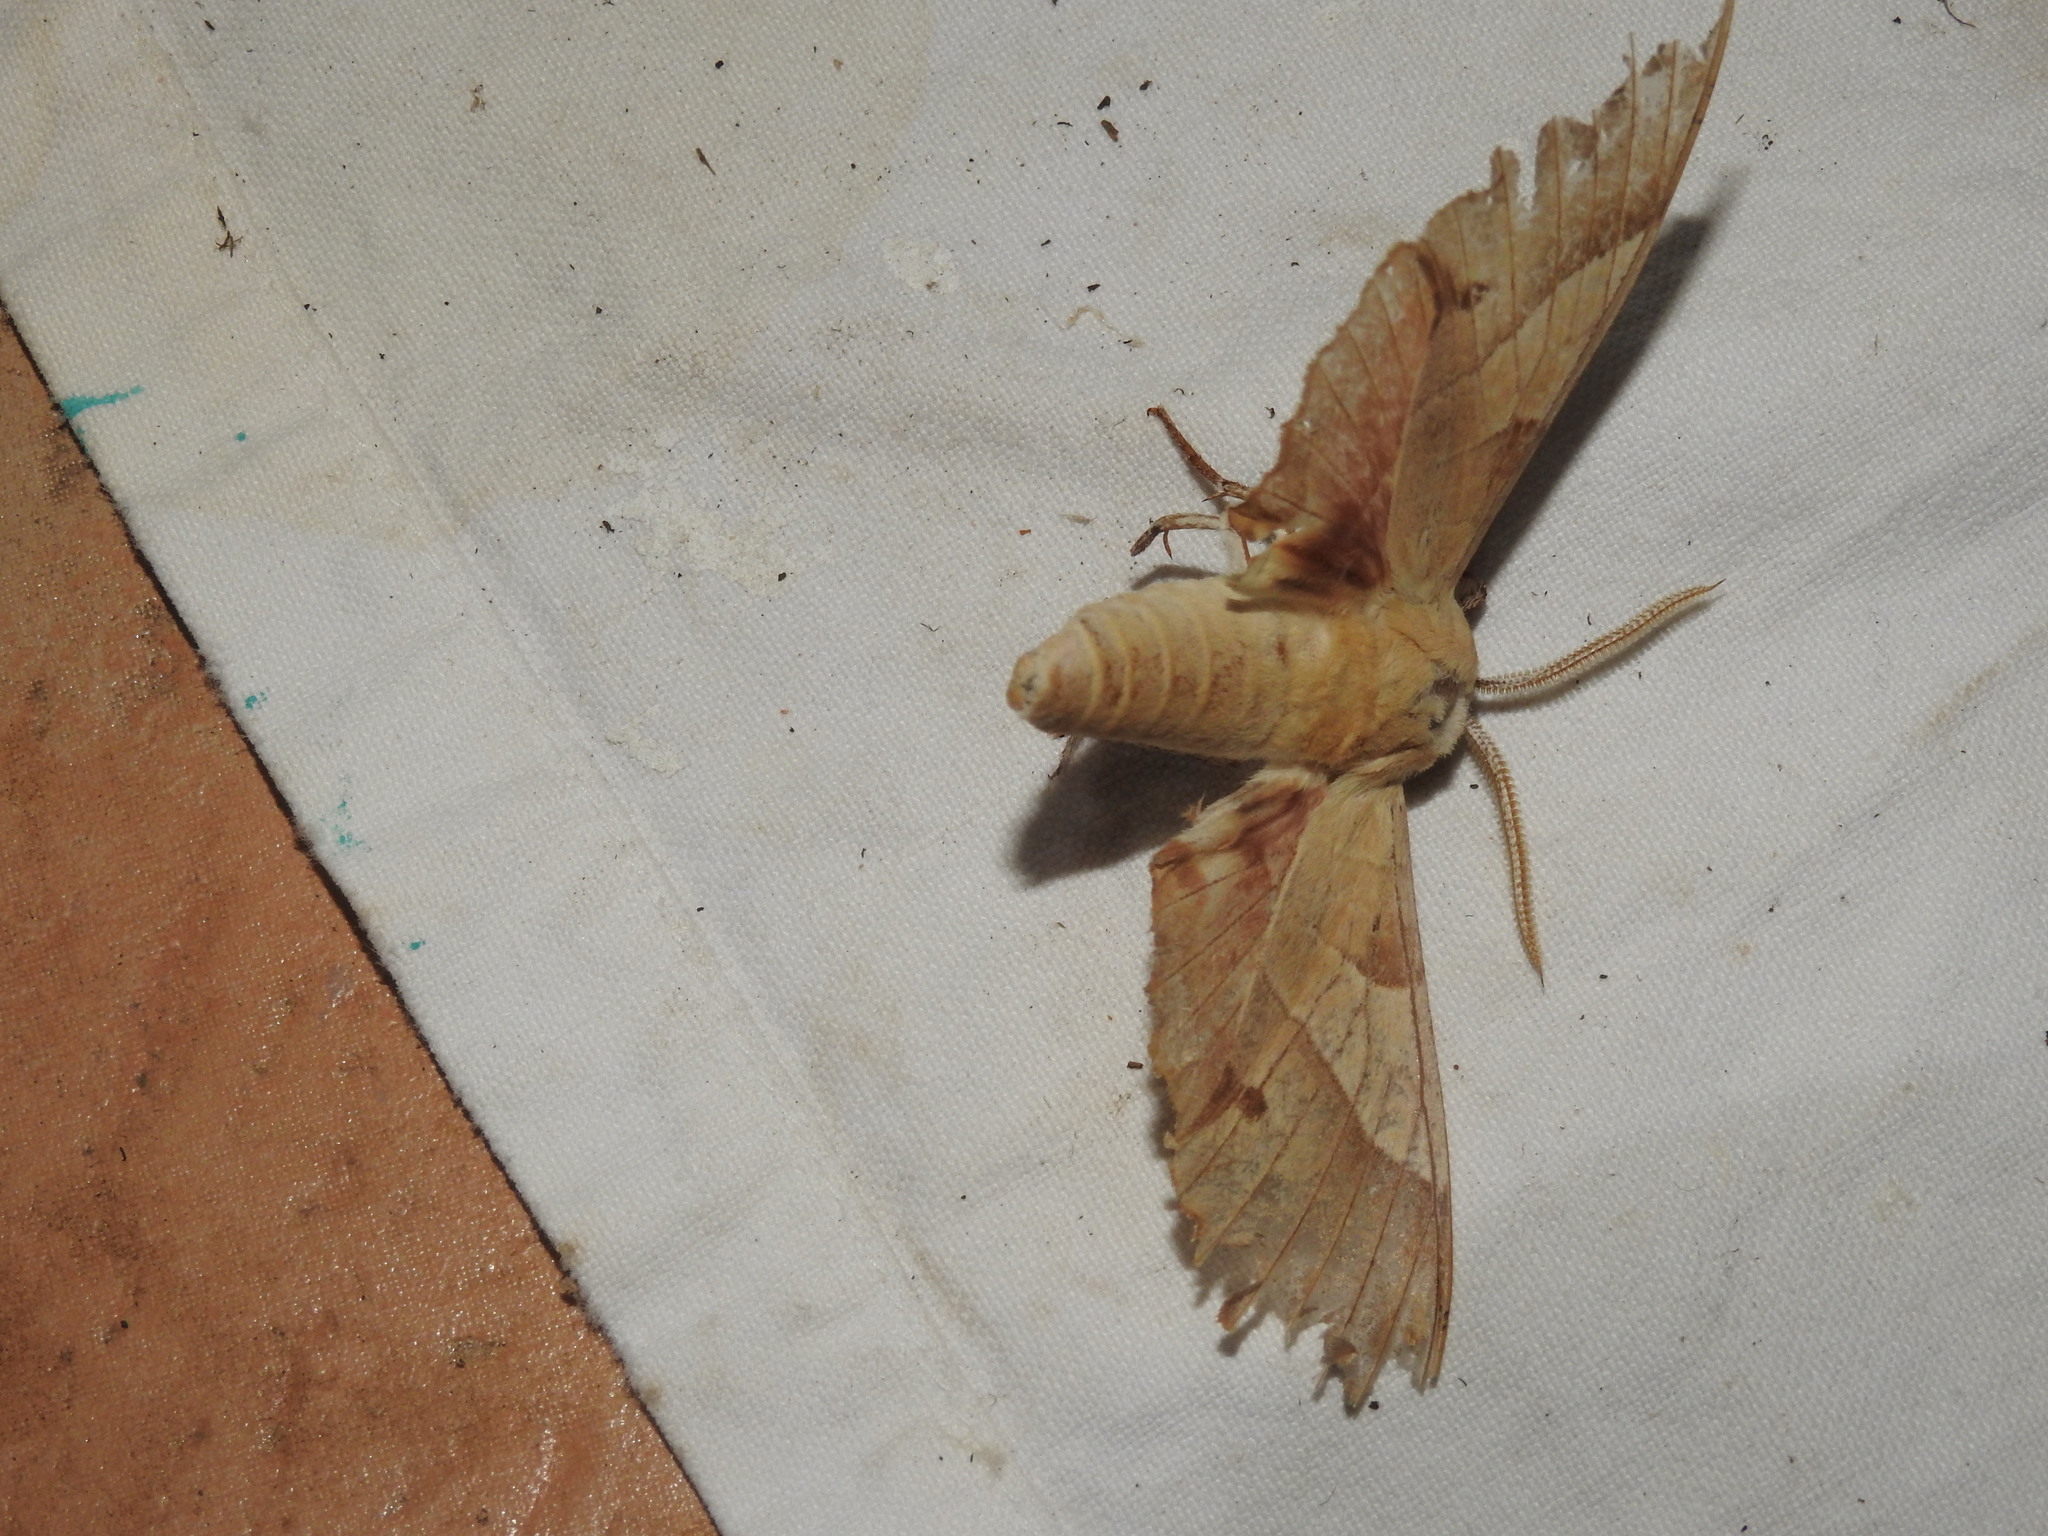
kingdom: Animalia
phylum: Arthropoda
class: Insecta
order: Lepidoptera
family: Sphingidae
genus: Marumba
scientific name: Marumba quercus
